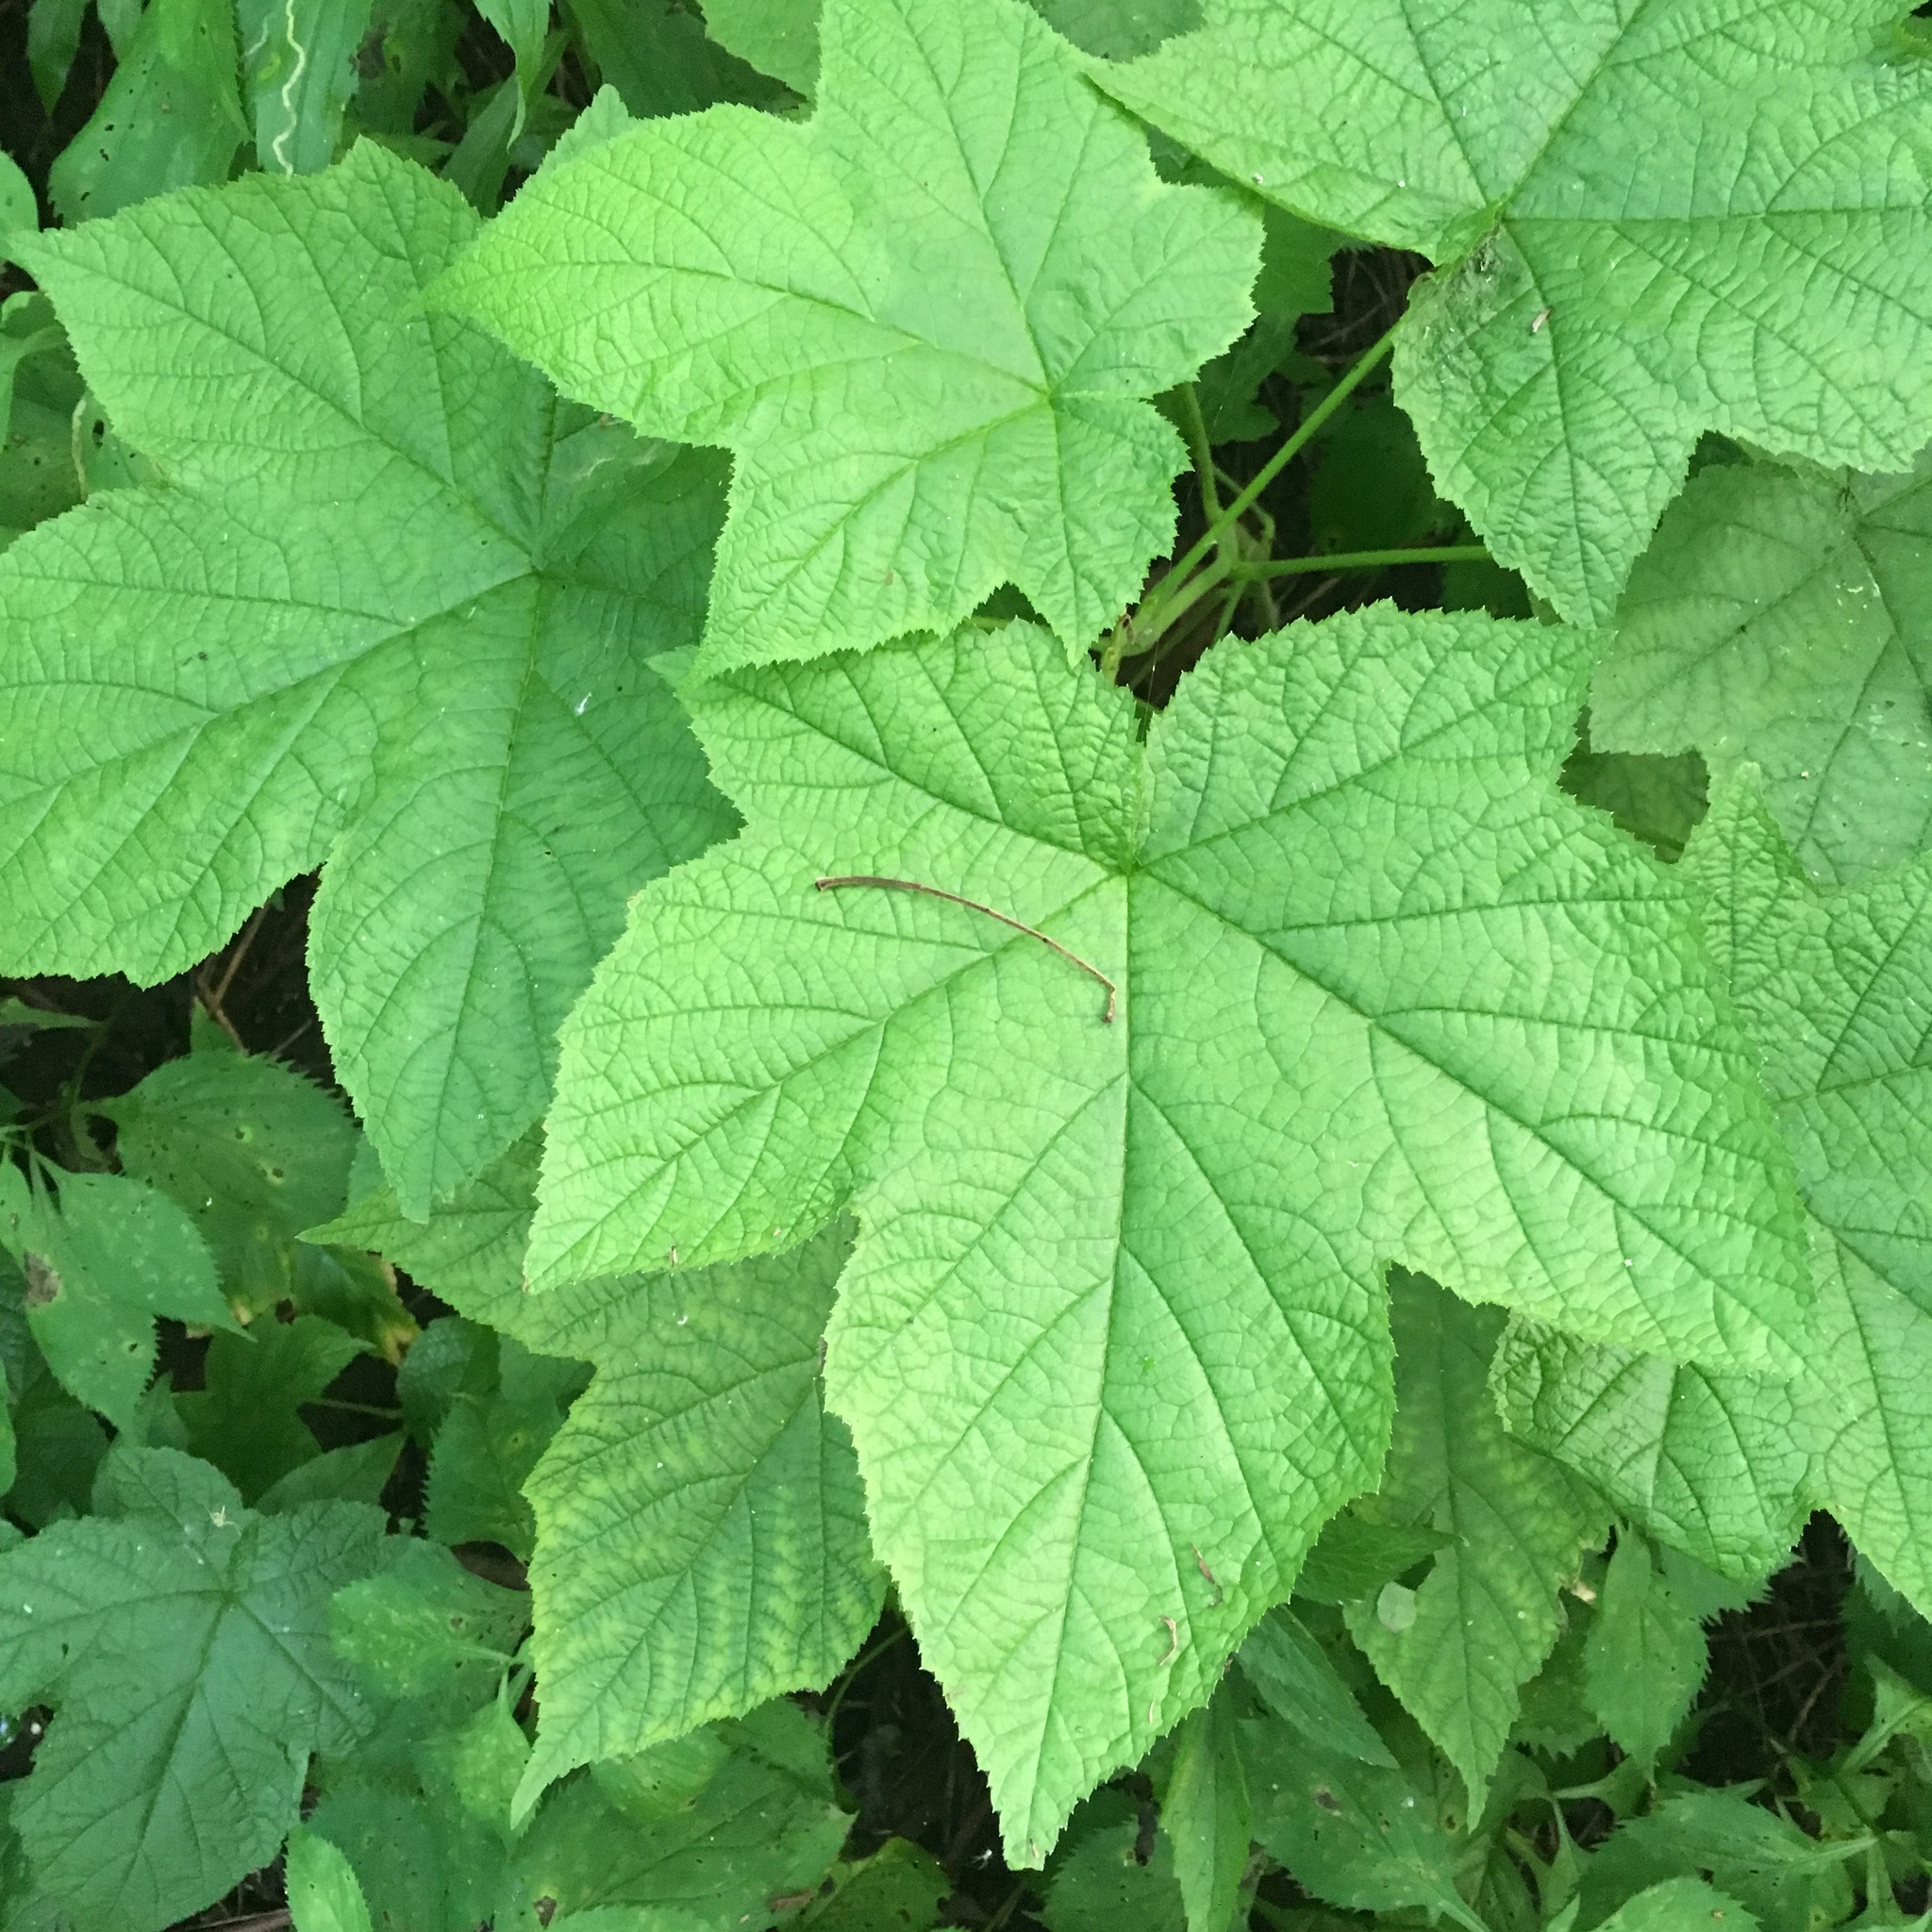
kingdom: Plantae
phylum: Tracheophyta
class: Magnoliopsida
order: Rosales
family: Rosaceae
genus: Rubus
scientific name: Rubus odoratus
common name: Purple-flowered raspberry
